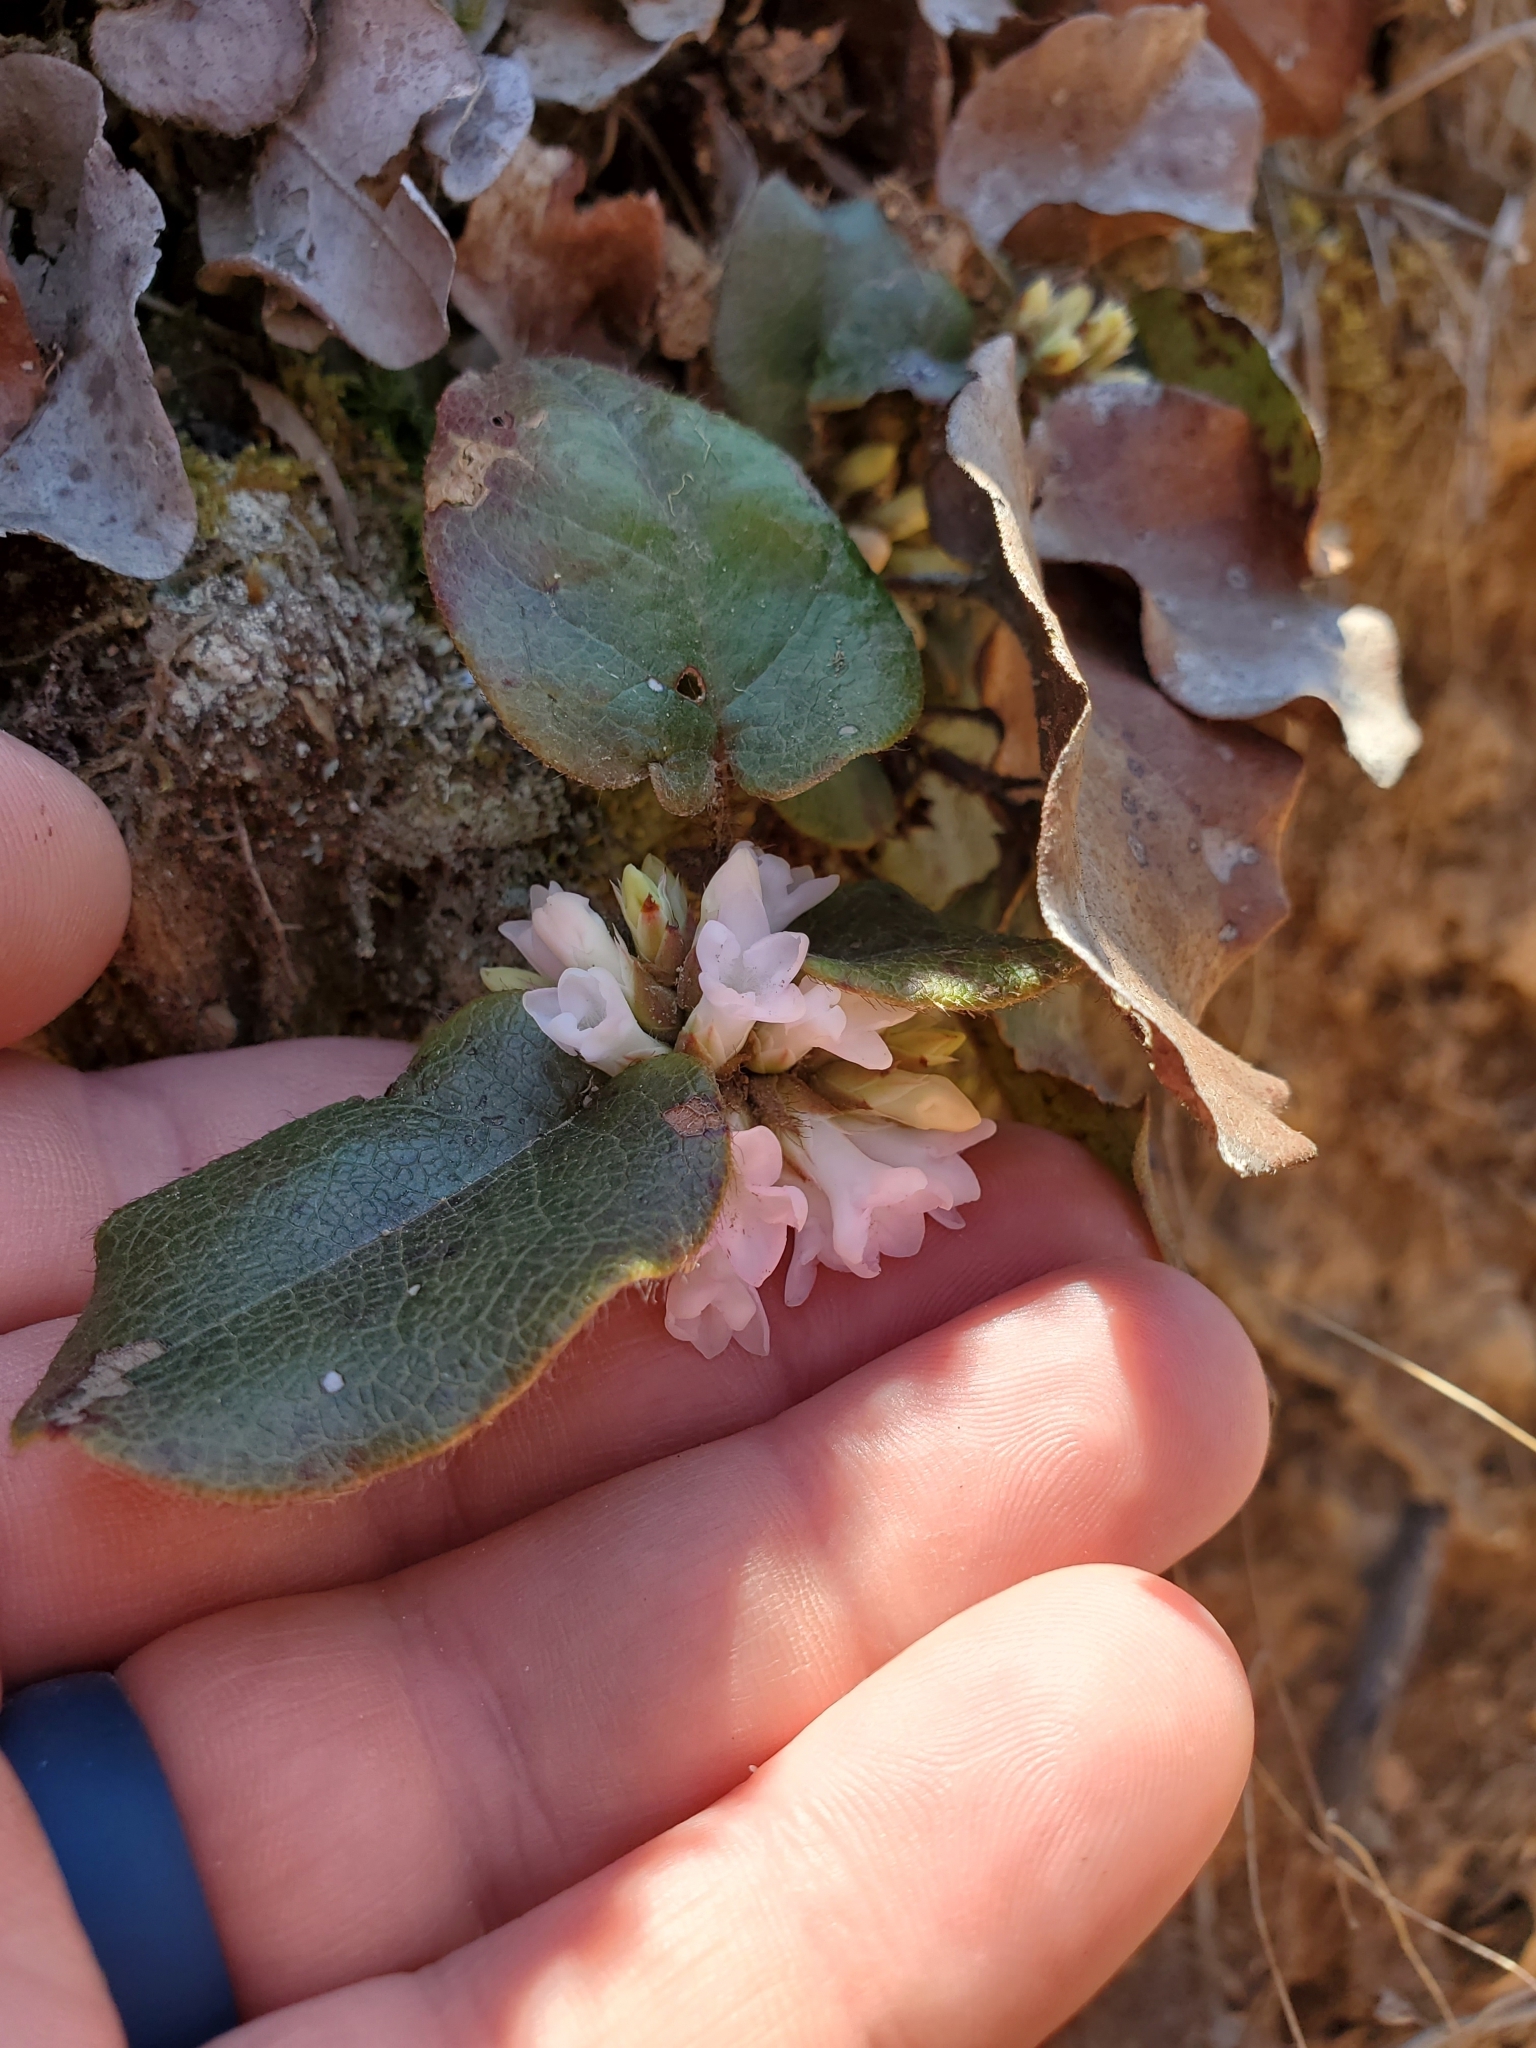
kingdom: Plantae
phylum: Tracheophyta
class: Magnoliopsida
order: Ericales
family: Ericaceae
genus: Epigaea
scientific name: Epigaea repens
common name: Gravelroot
